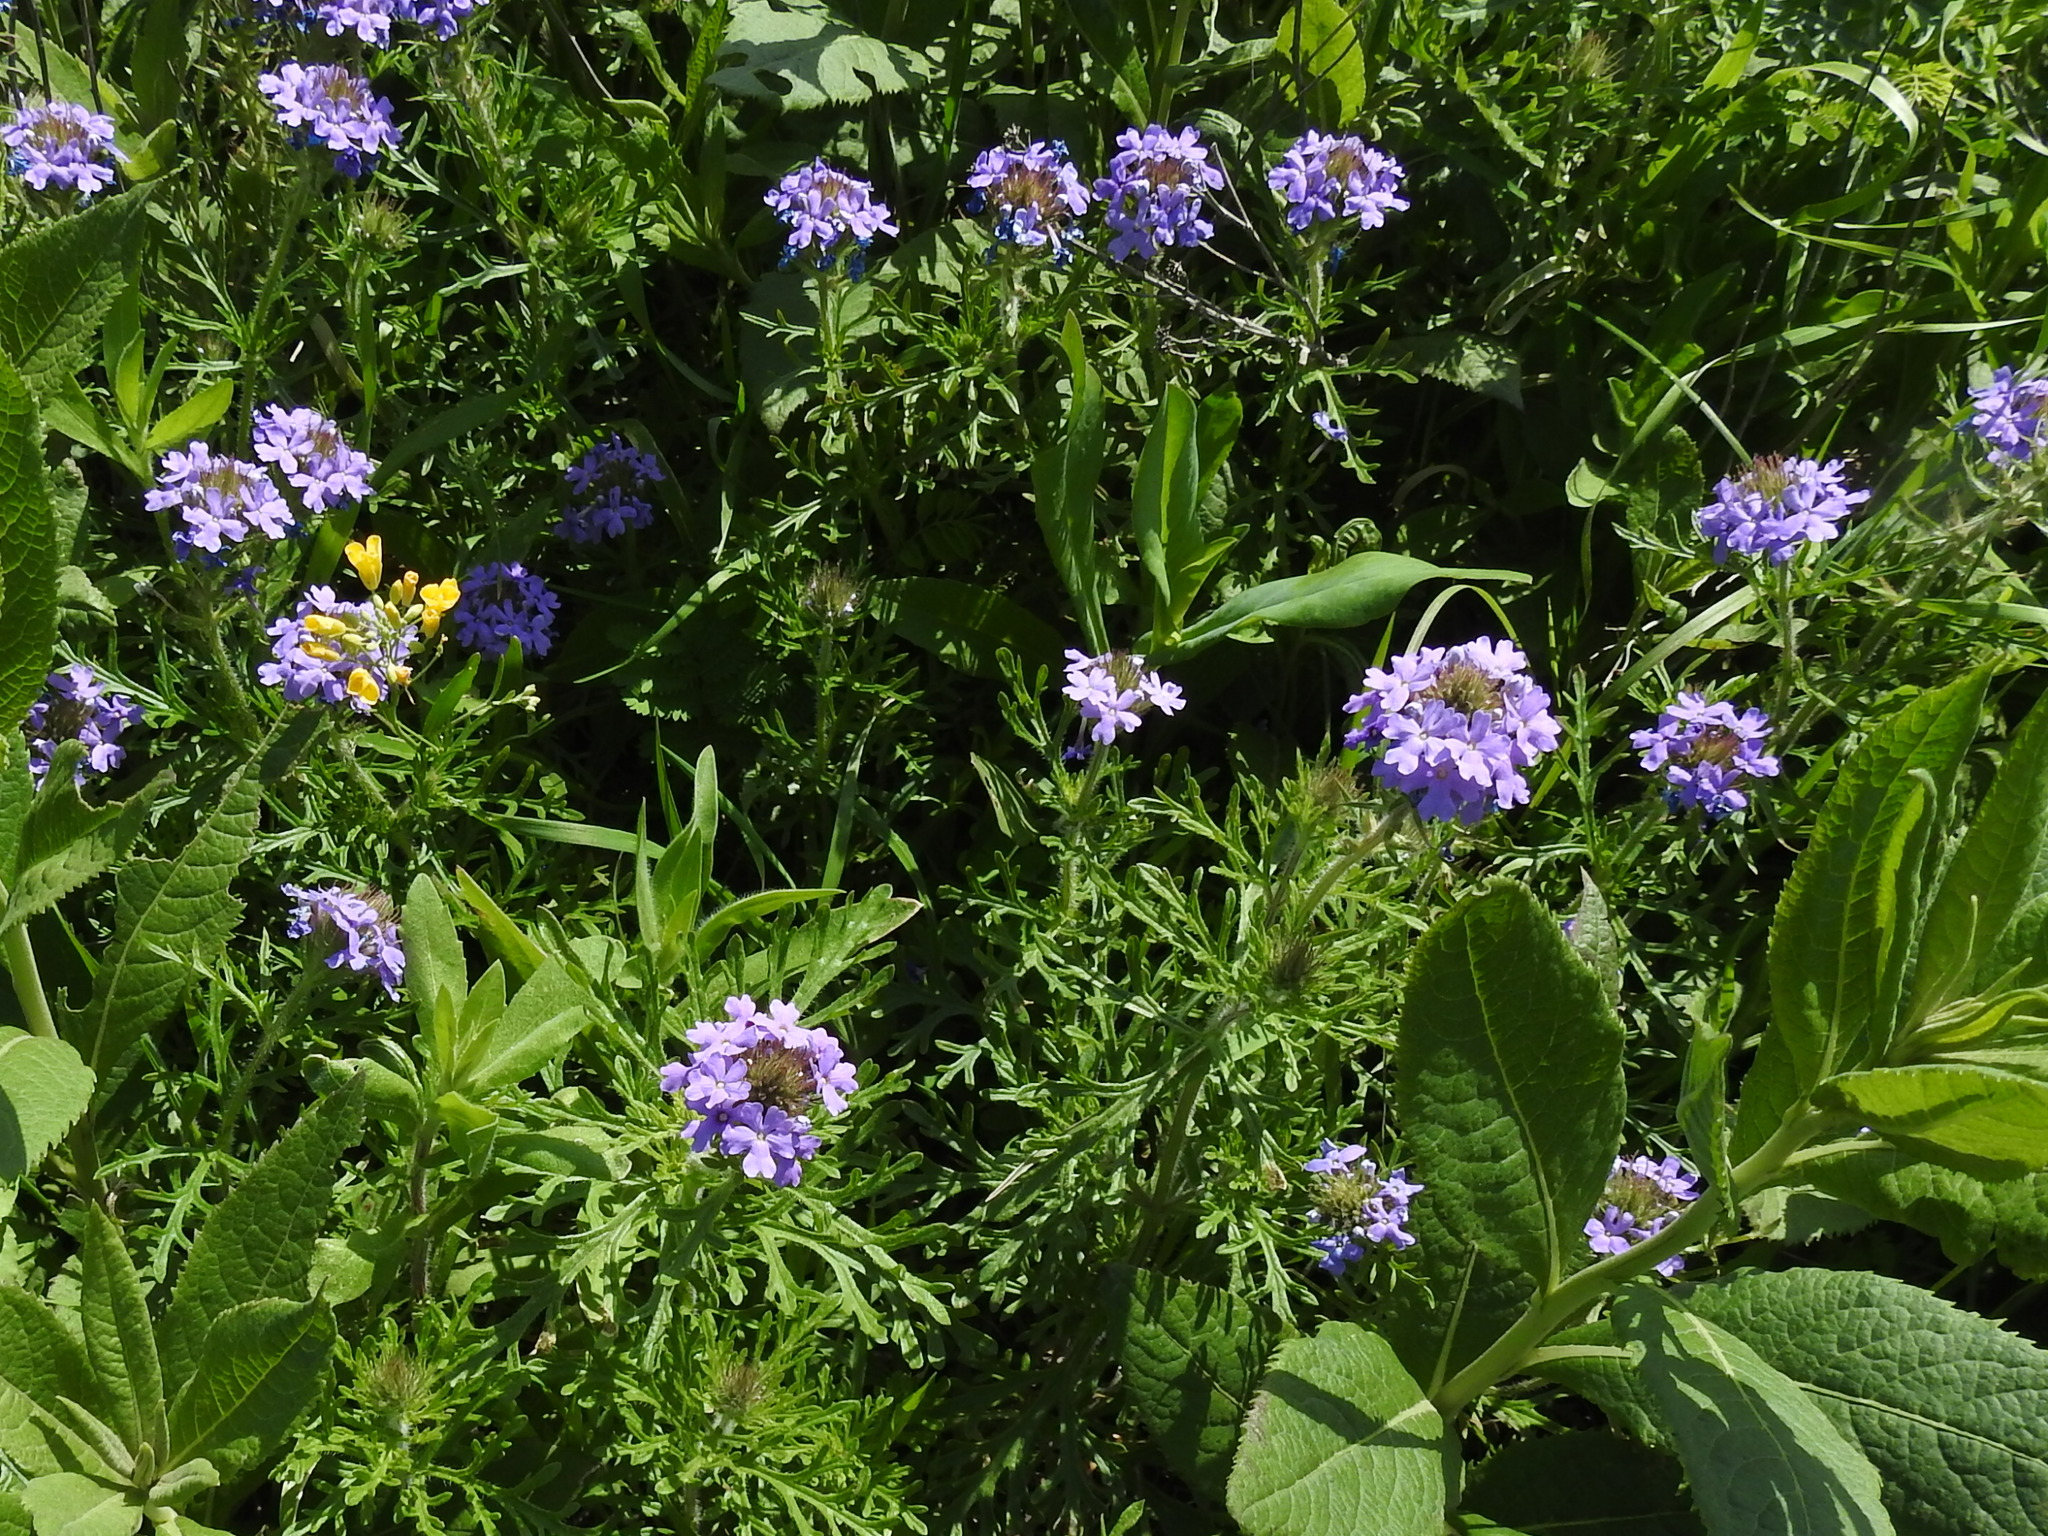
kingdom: Plantae
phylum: Tracheophyta
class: Magnoliopsida
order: Lamiales
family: Verbenaceae
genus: Verbena
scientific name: Verbena bipinnatifida
